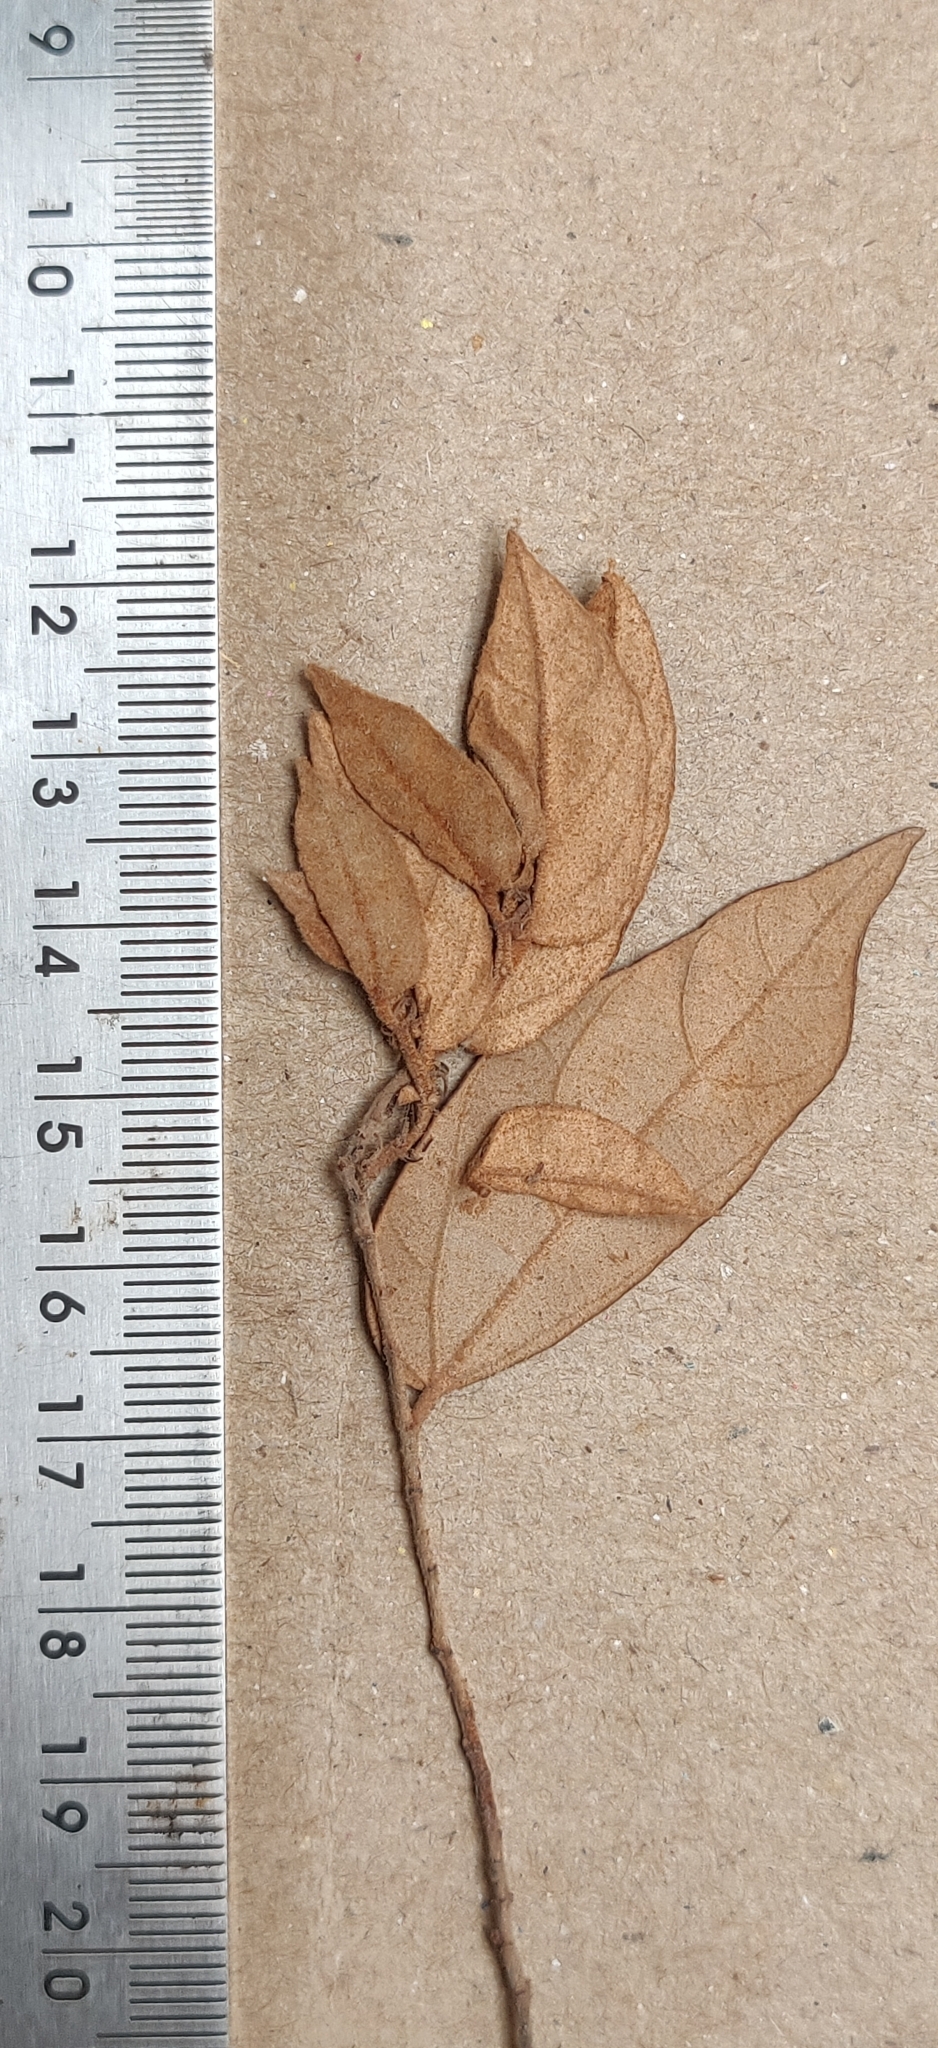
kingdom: Plantae
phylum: Tracheophyta
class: Magnoliopsida
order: Malvales
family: Malvaceae
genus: Pterospermum
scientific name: Pterospermum rubiginosum
